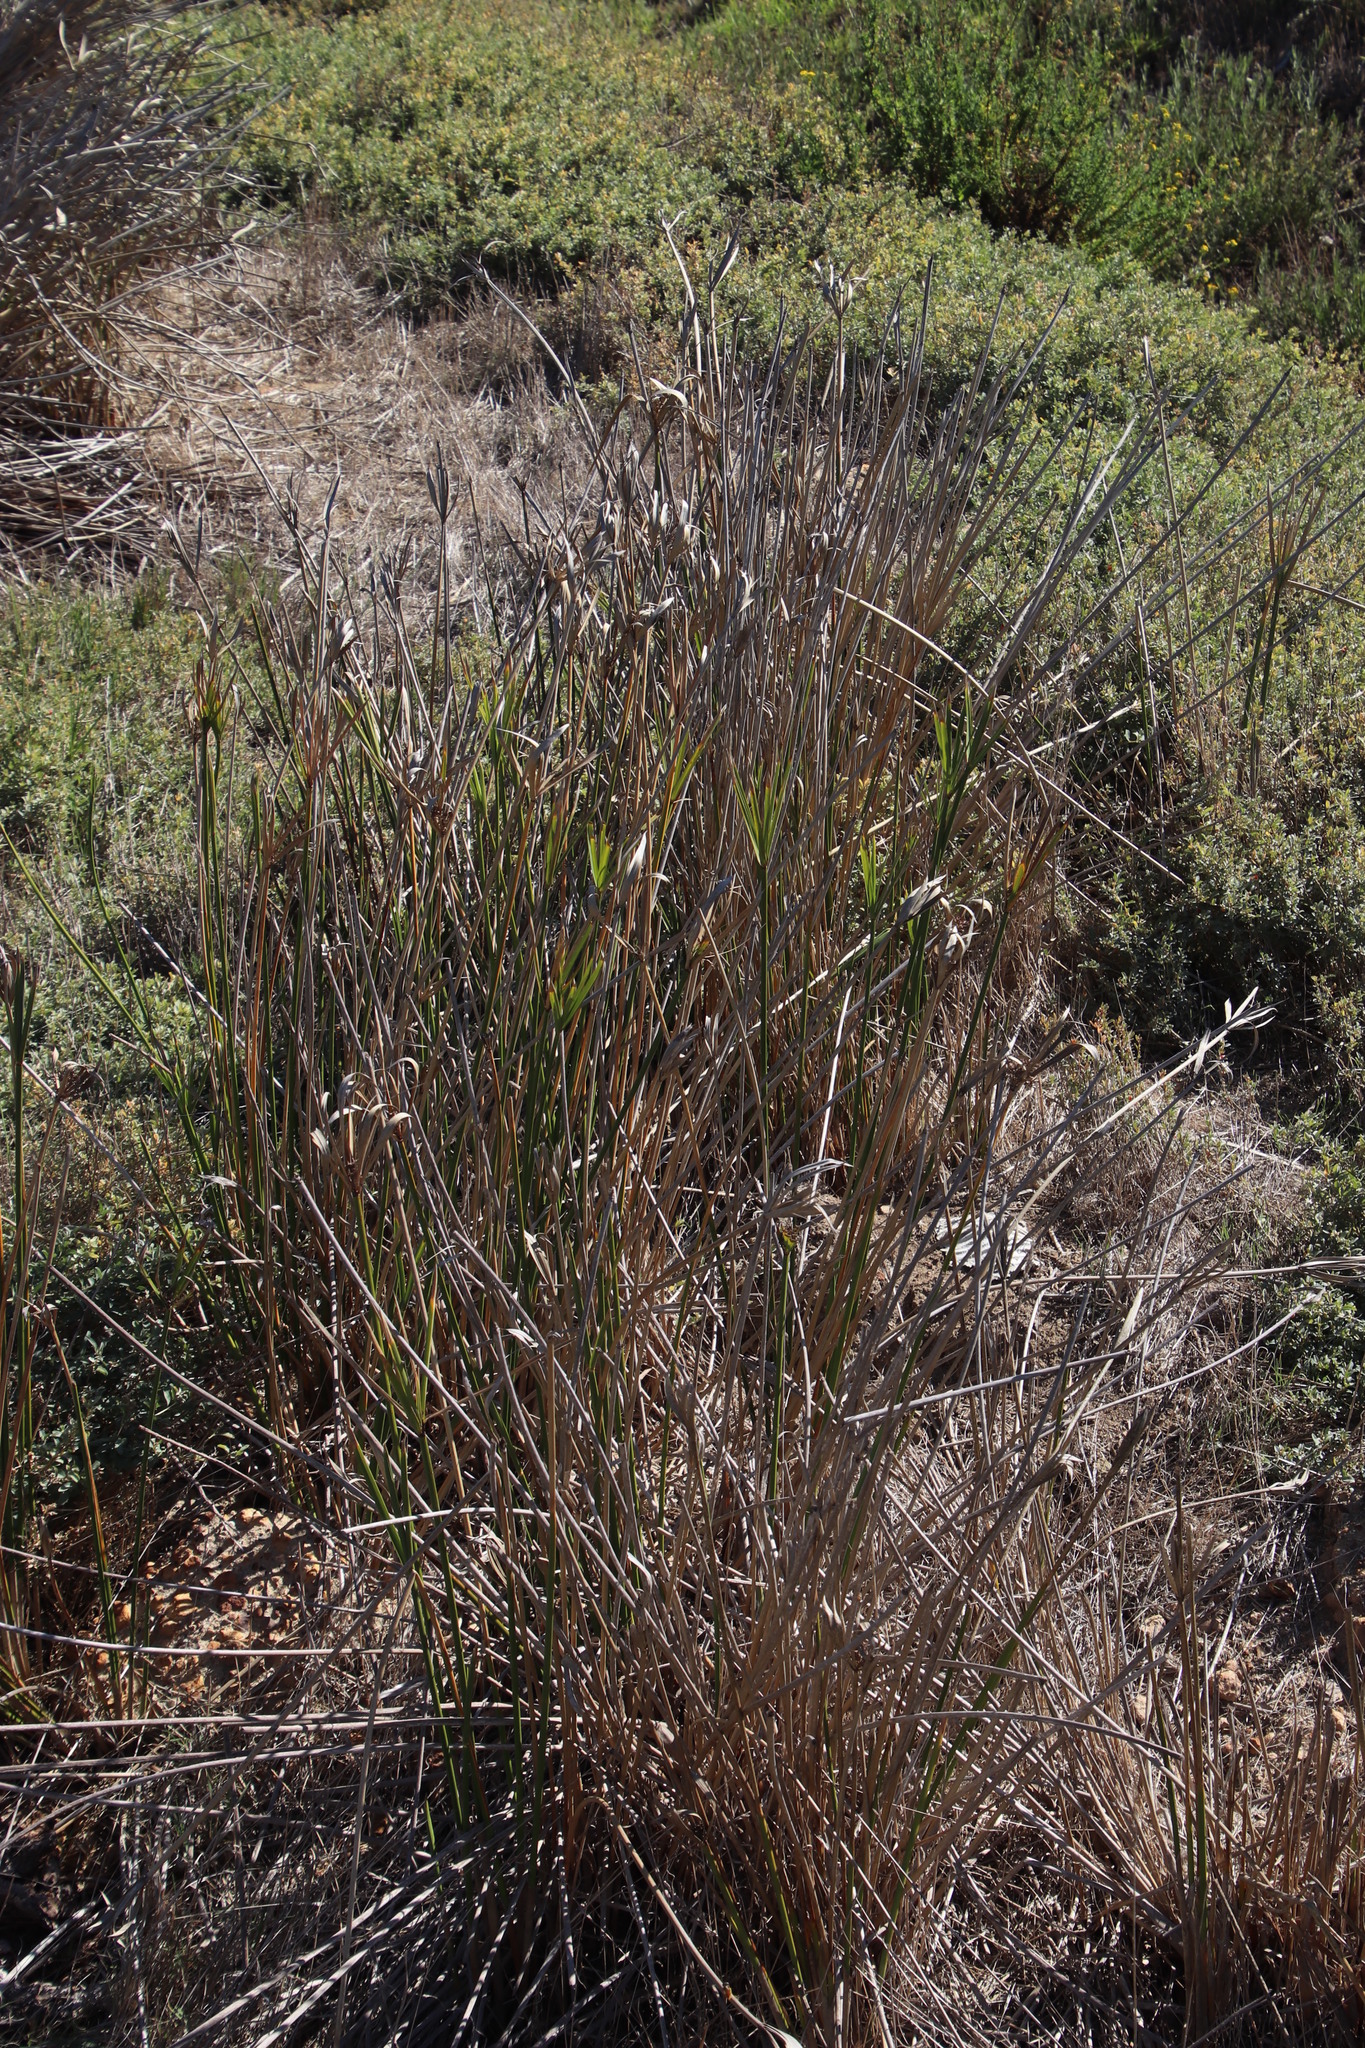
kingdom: Plantae
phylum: Tracheophyta
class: Liliopsida
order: Poales
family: Cyperaceae
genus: Cyperus
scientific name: Cyperus textilis
